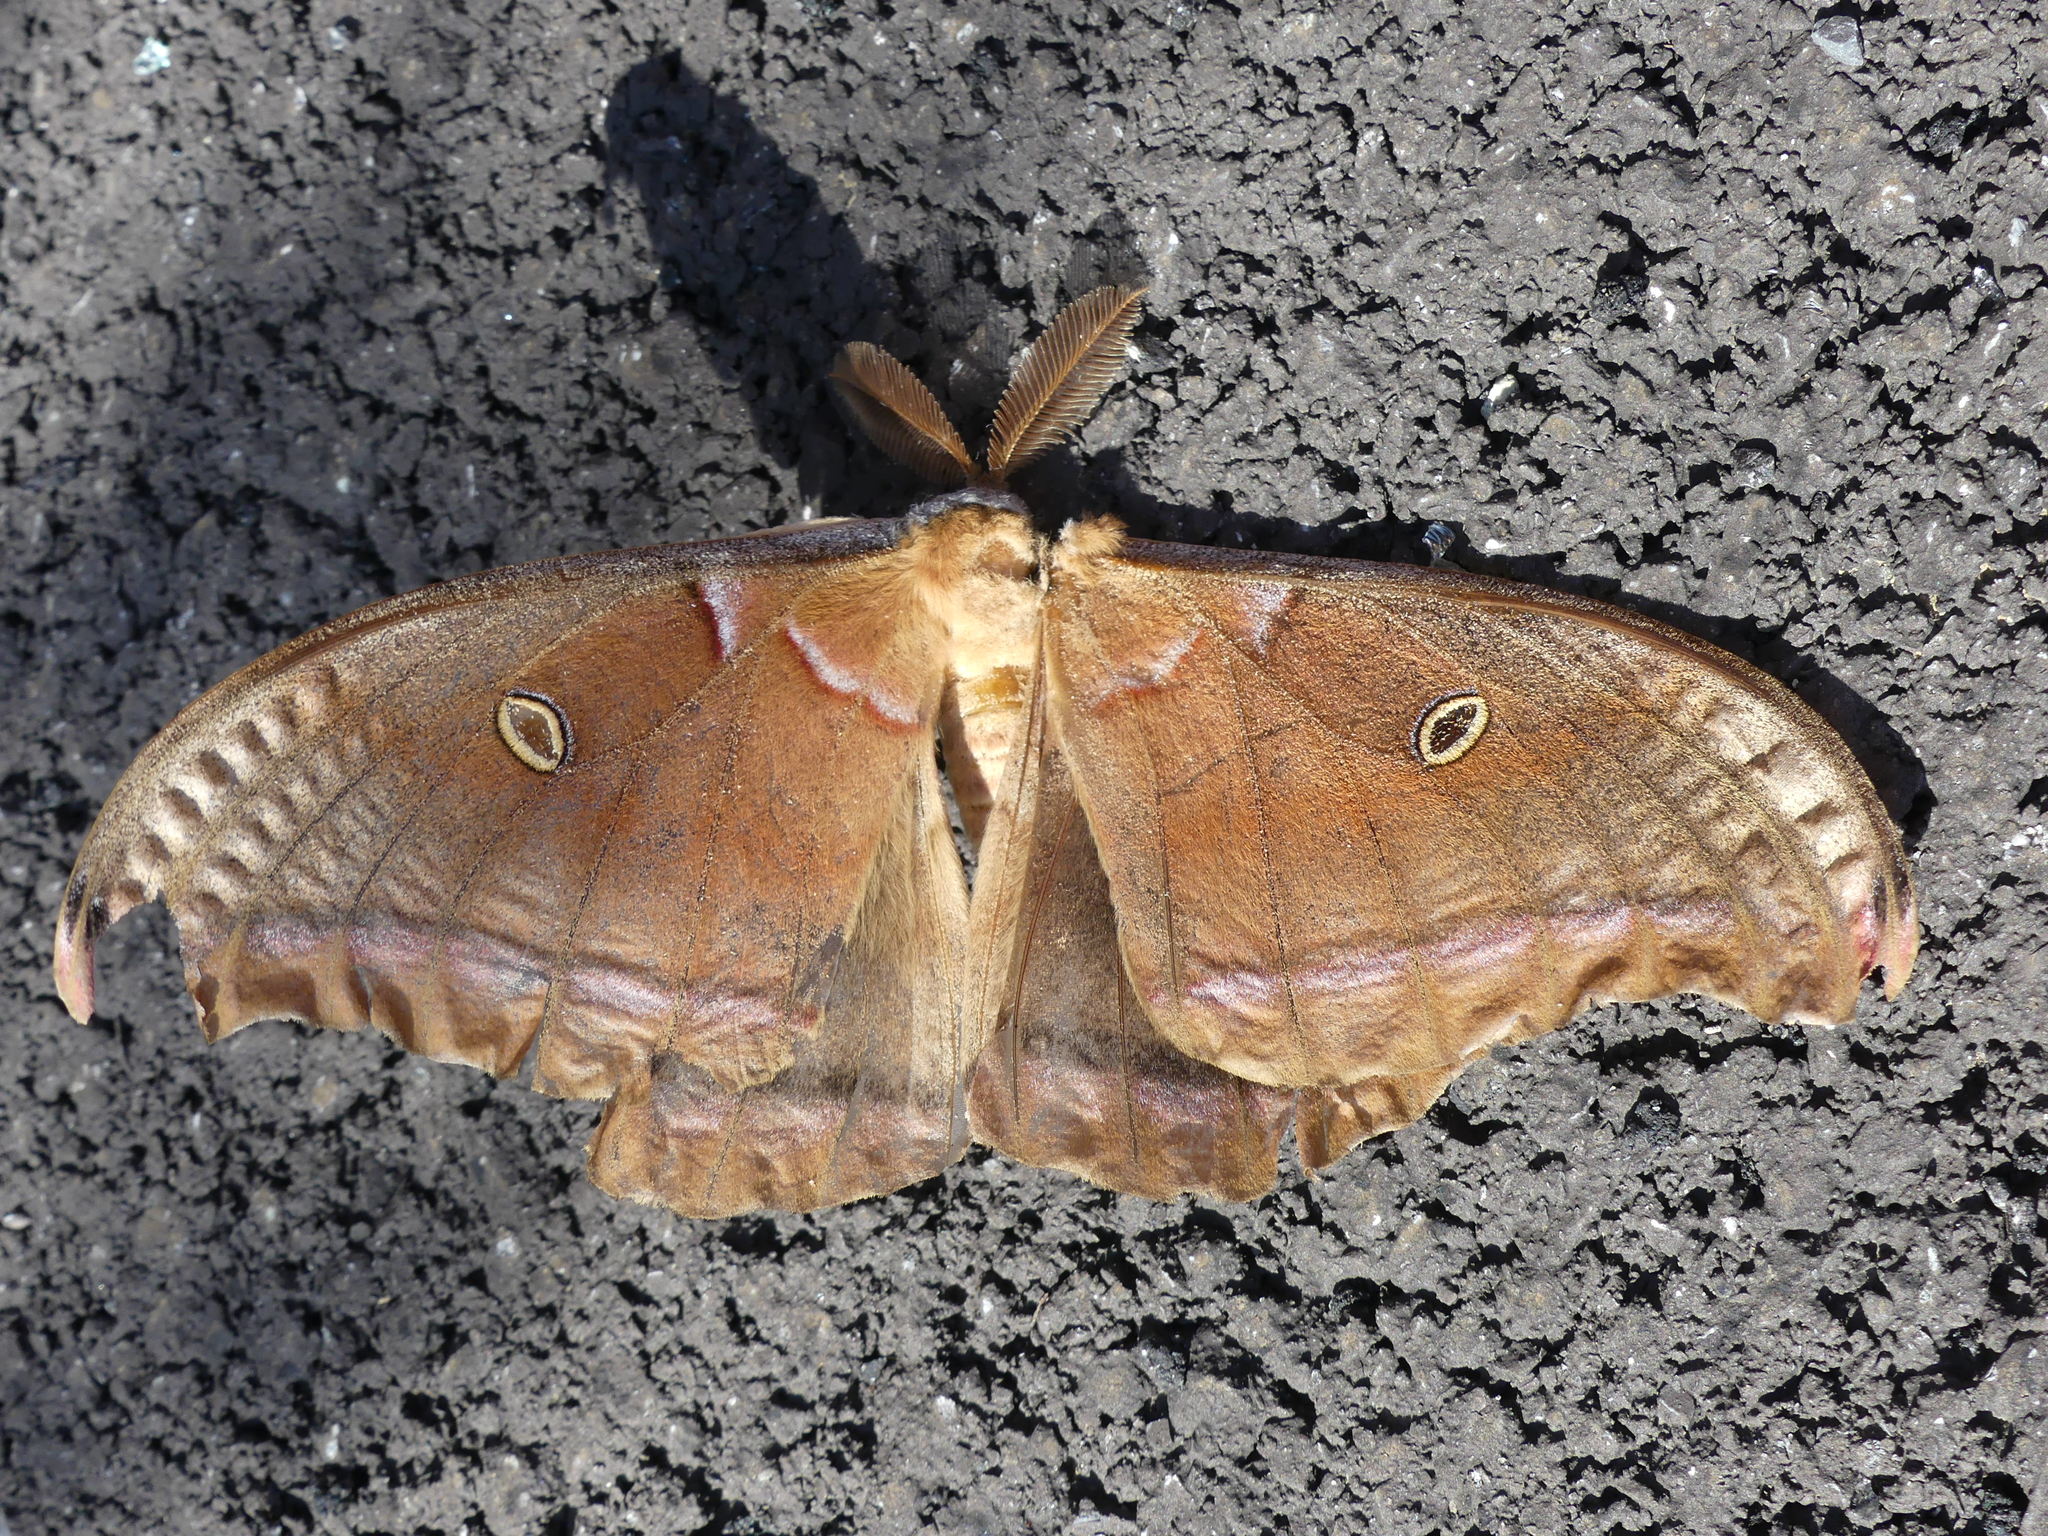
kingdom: Animalia
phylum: Arthropoda
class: Insecta
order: Lepidoptera
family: Saturniidae
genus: Antheraea
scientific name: Antheraea polyphemus
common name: Polyphemus moth
